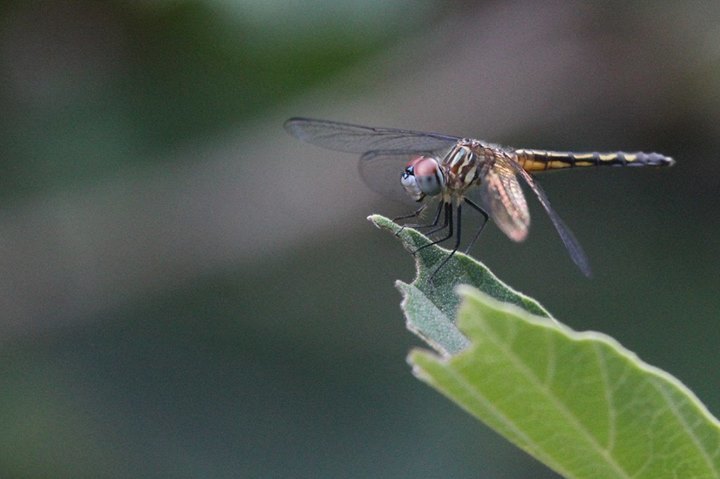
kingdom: Animalia
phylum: Arthropoda
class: Insecta
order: Odonata
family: Libellulidae
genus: Pachydiplax
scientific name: Pachydiplax longipennis
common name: Blue dasher
